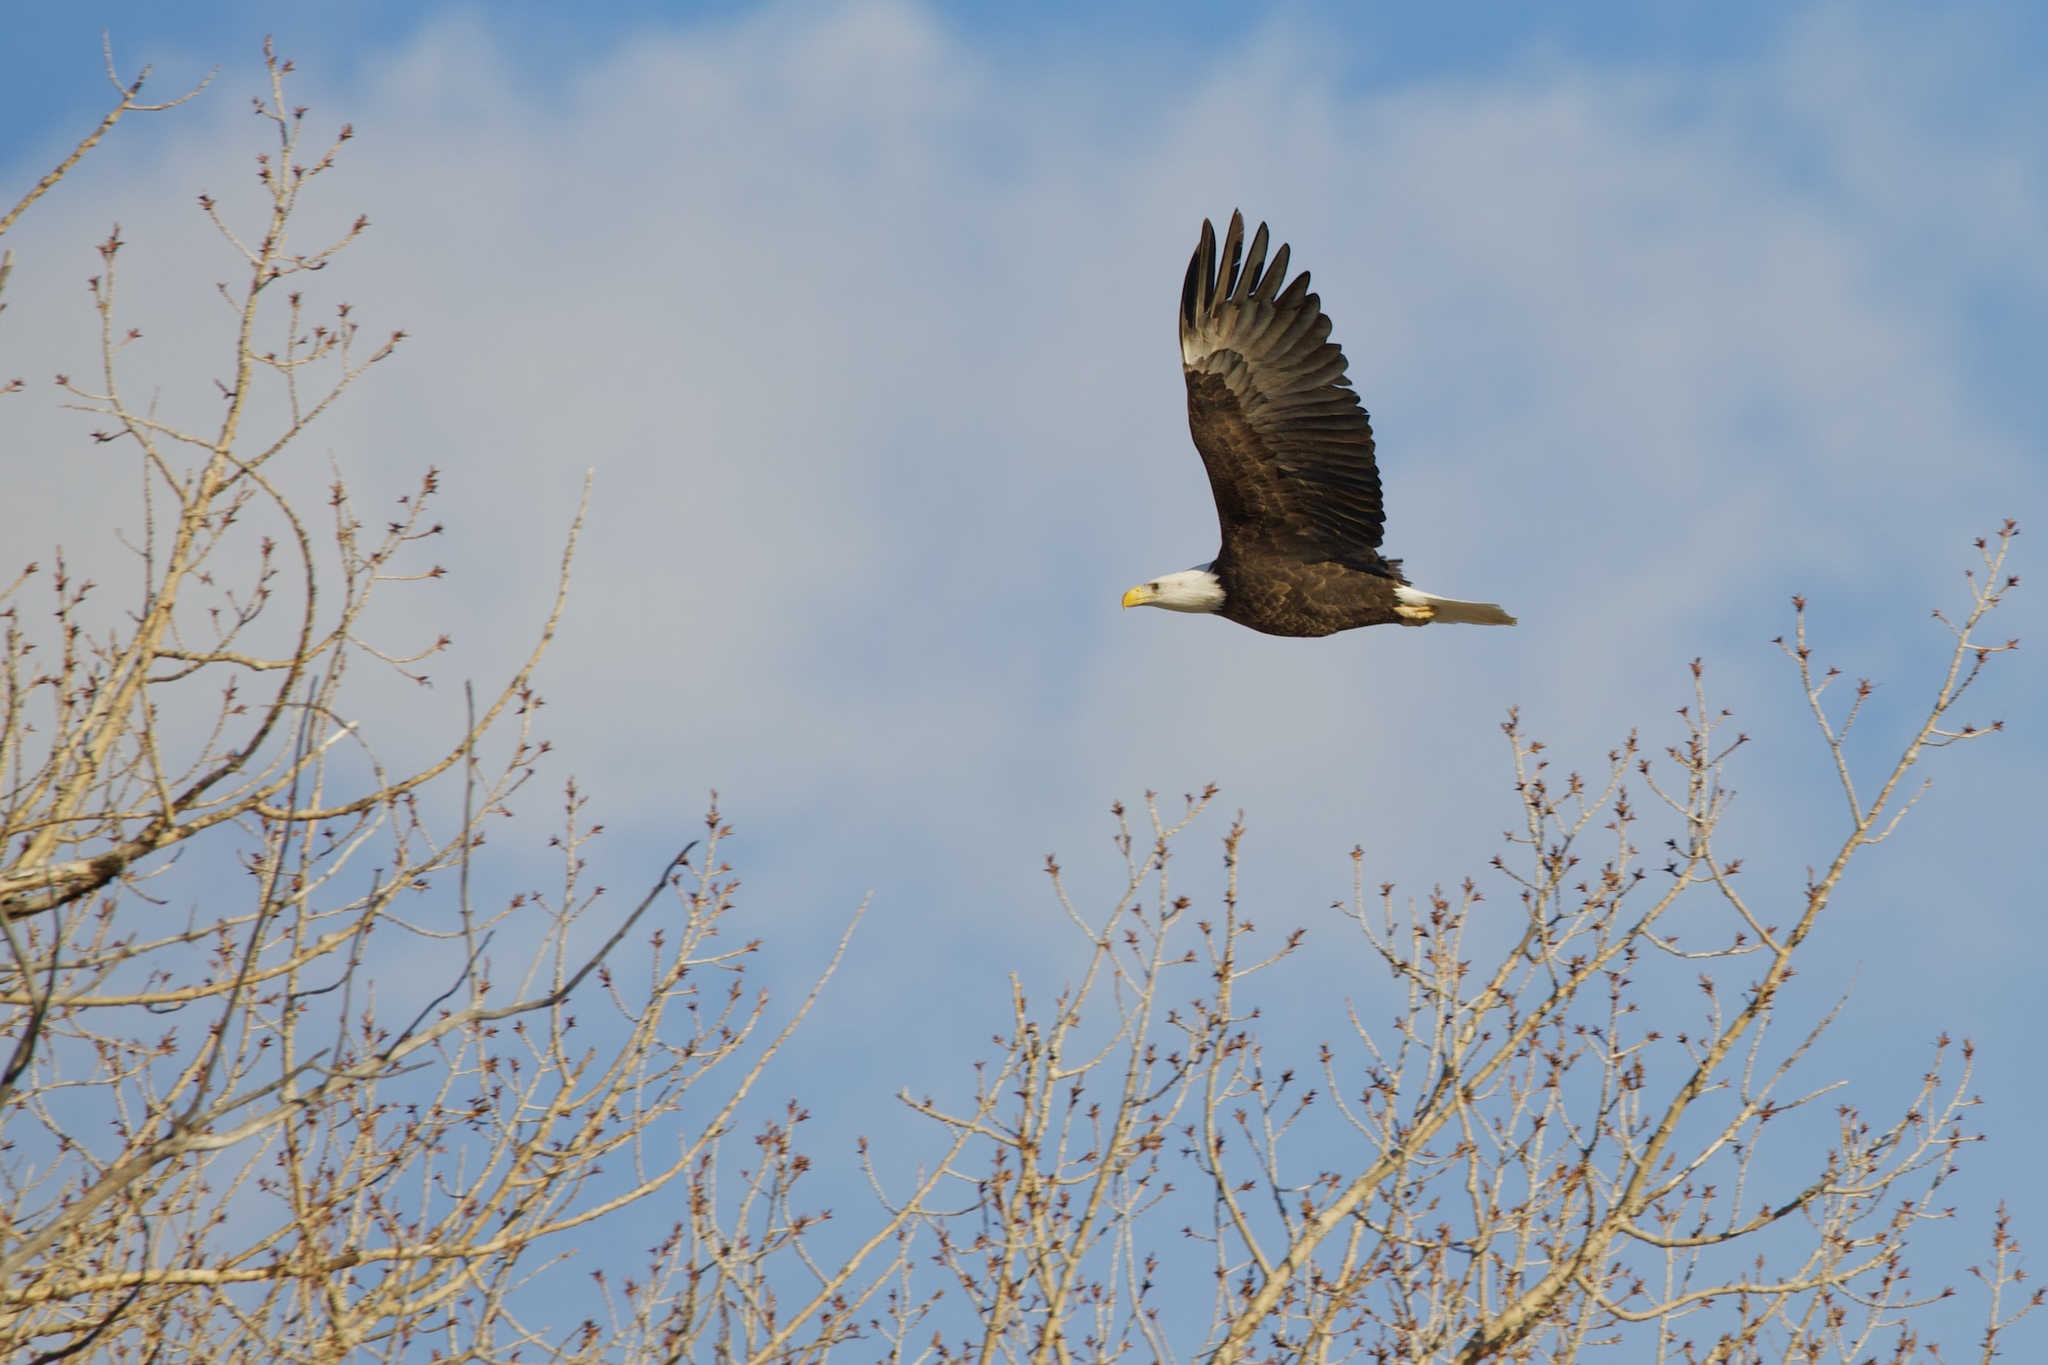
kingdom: Animalia
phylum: Chordata
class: Aves
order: Accipitriformes
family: Accipitridae
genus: Haliaeetus
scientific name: Haliaeetus leucocephalus
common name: Bald eagle
